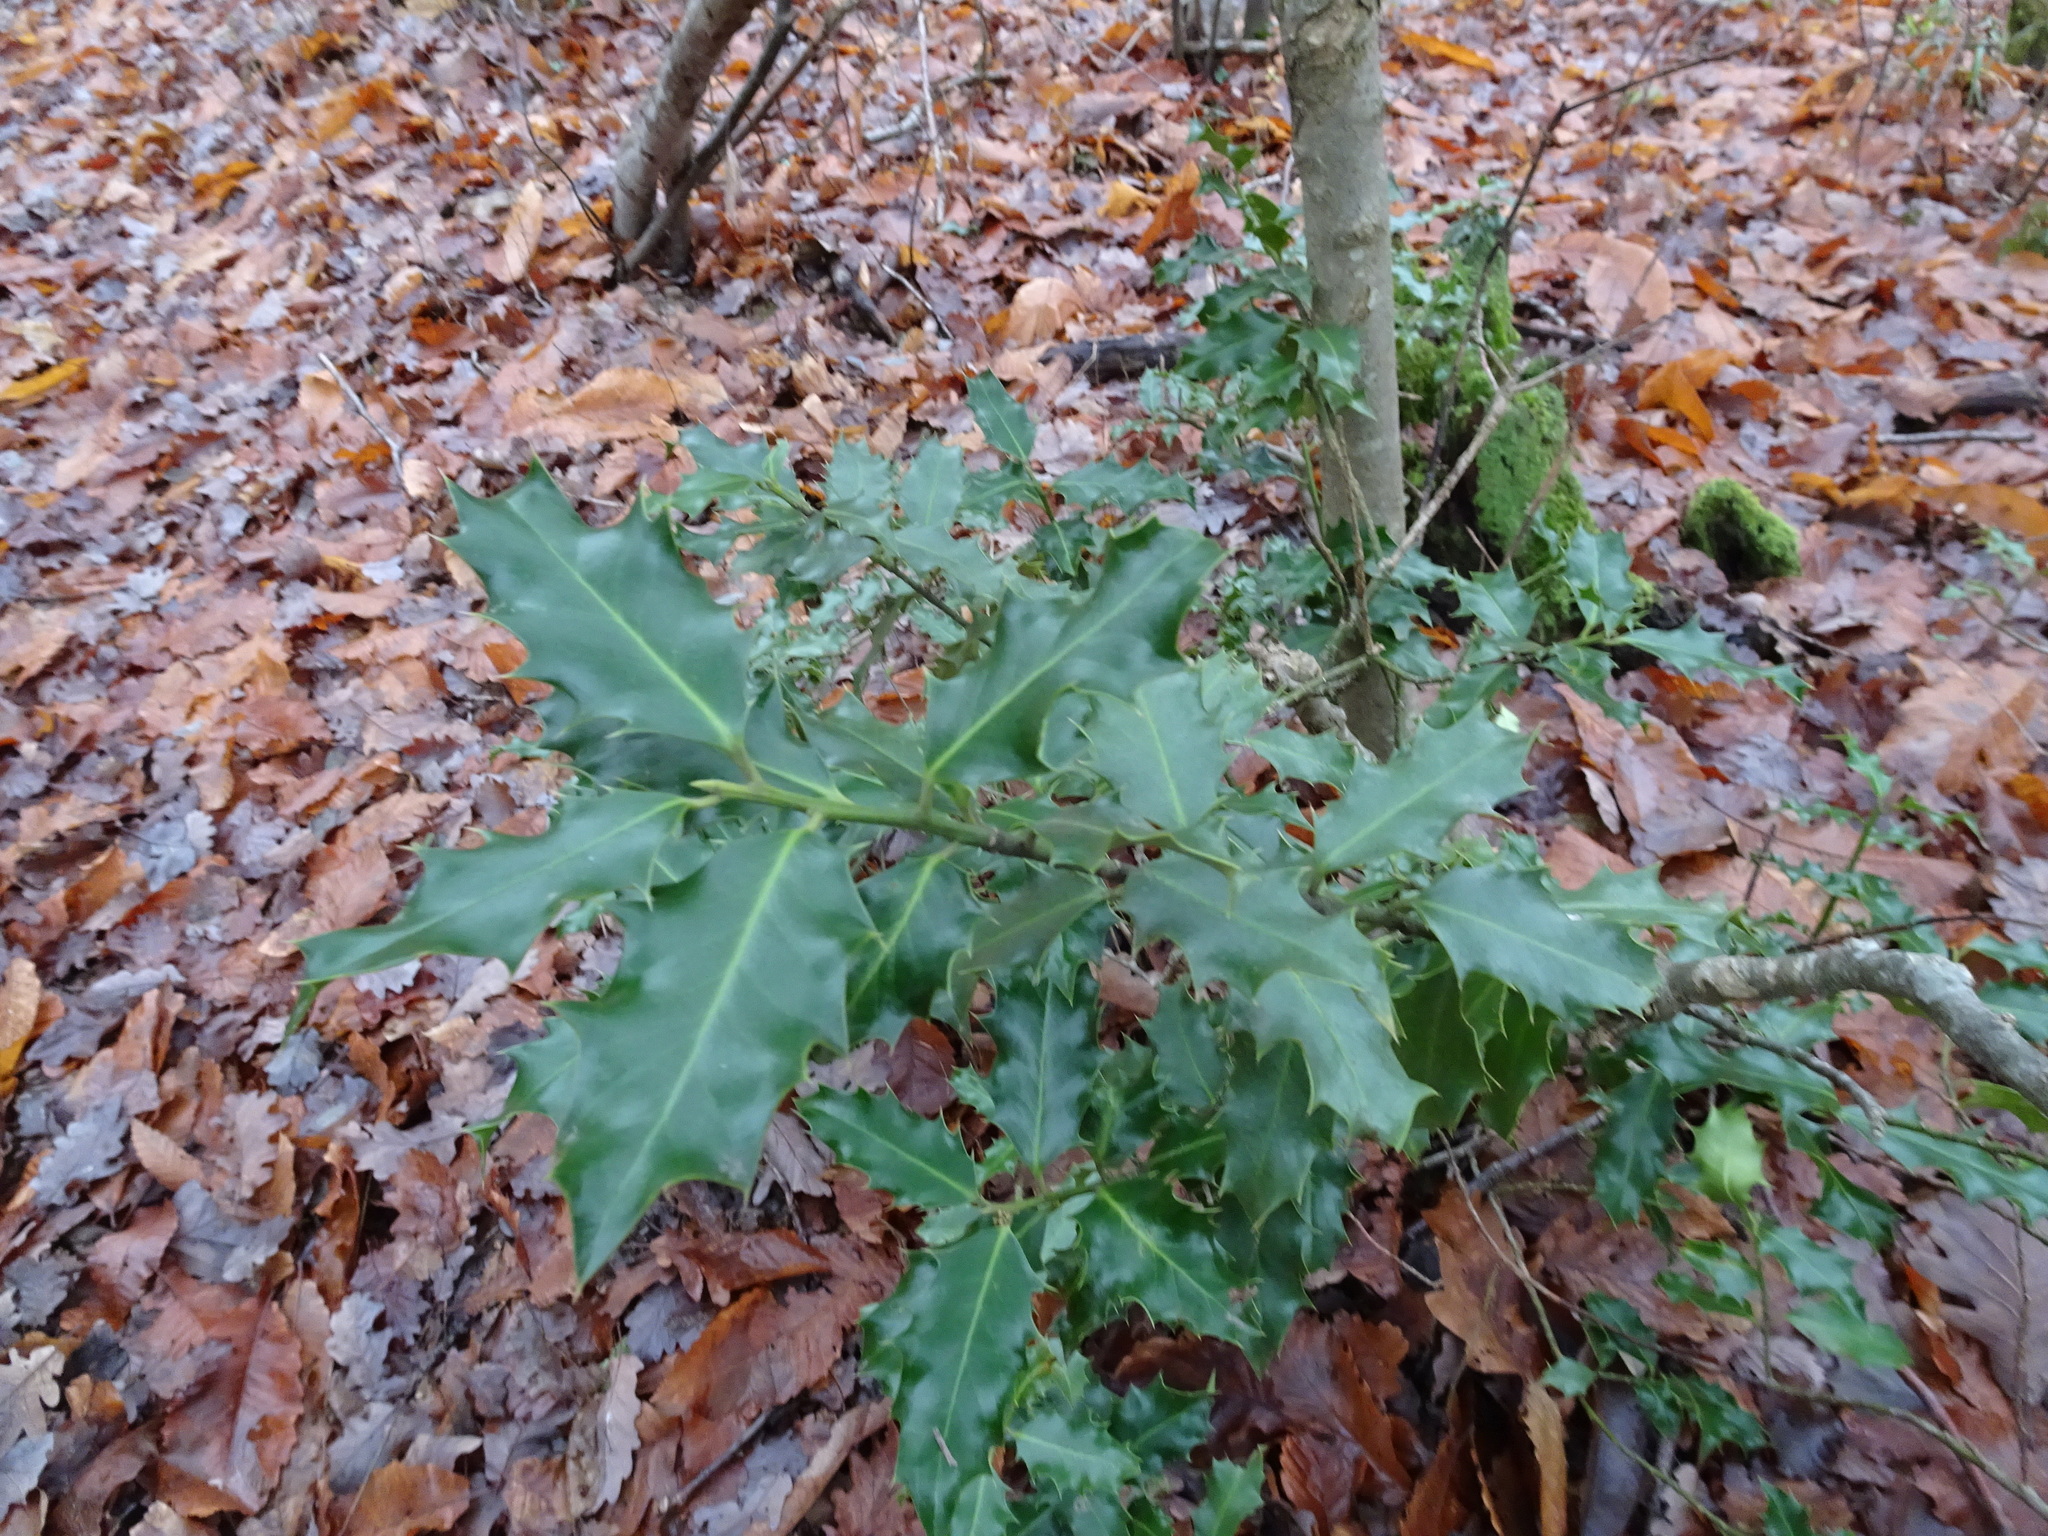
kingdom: Plantae
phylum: Tracheophyta
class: Magnoliopsida
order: Aquifoliales
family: Aquifoliaceae
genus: Ilex
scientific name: Ilex aquifolium
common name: English holly
